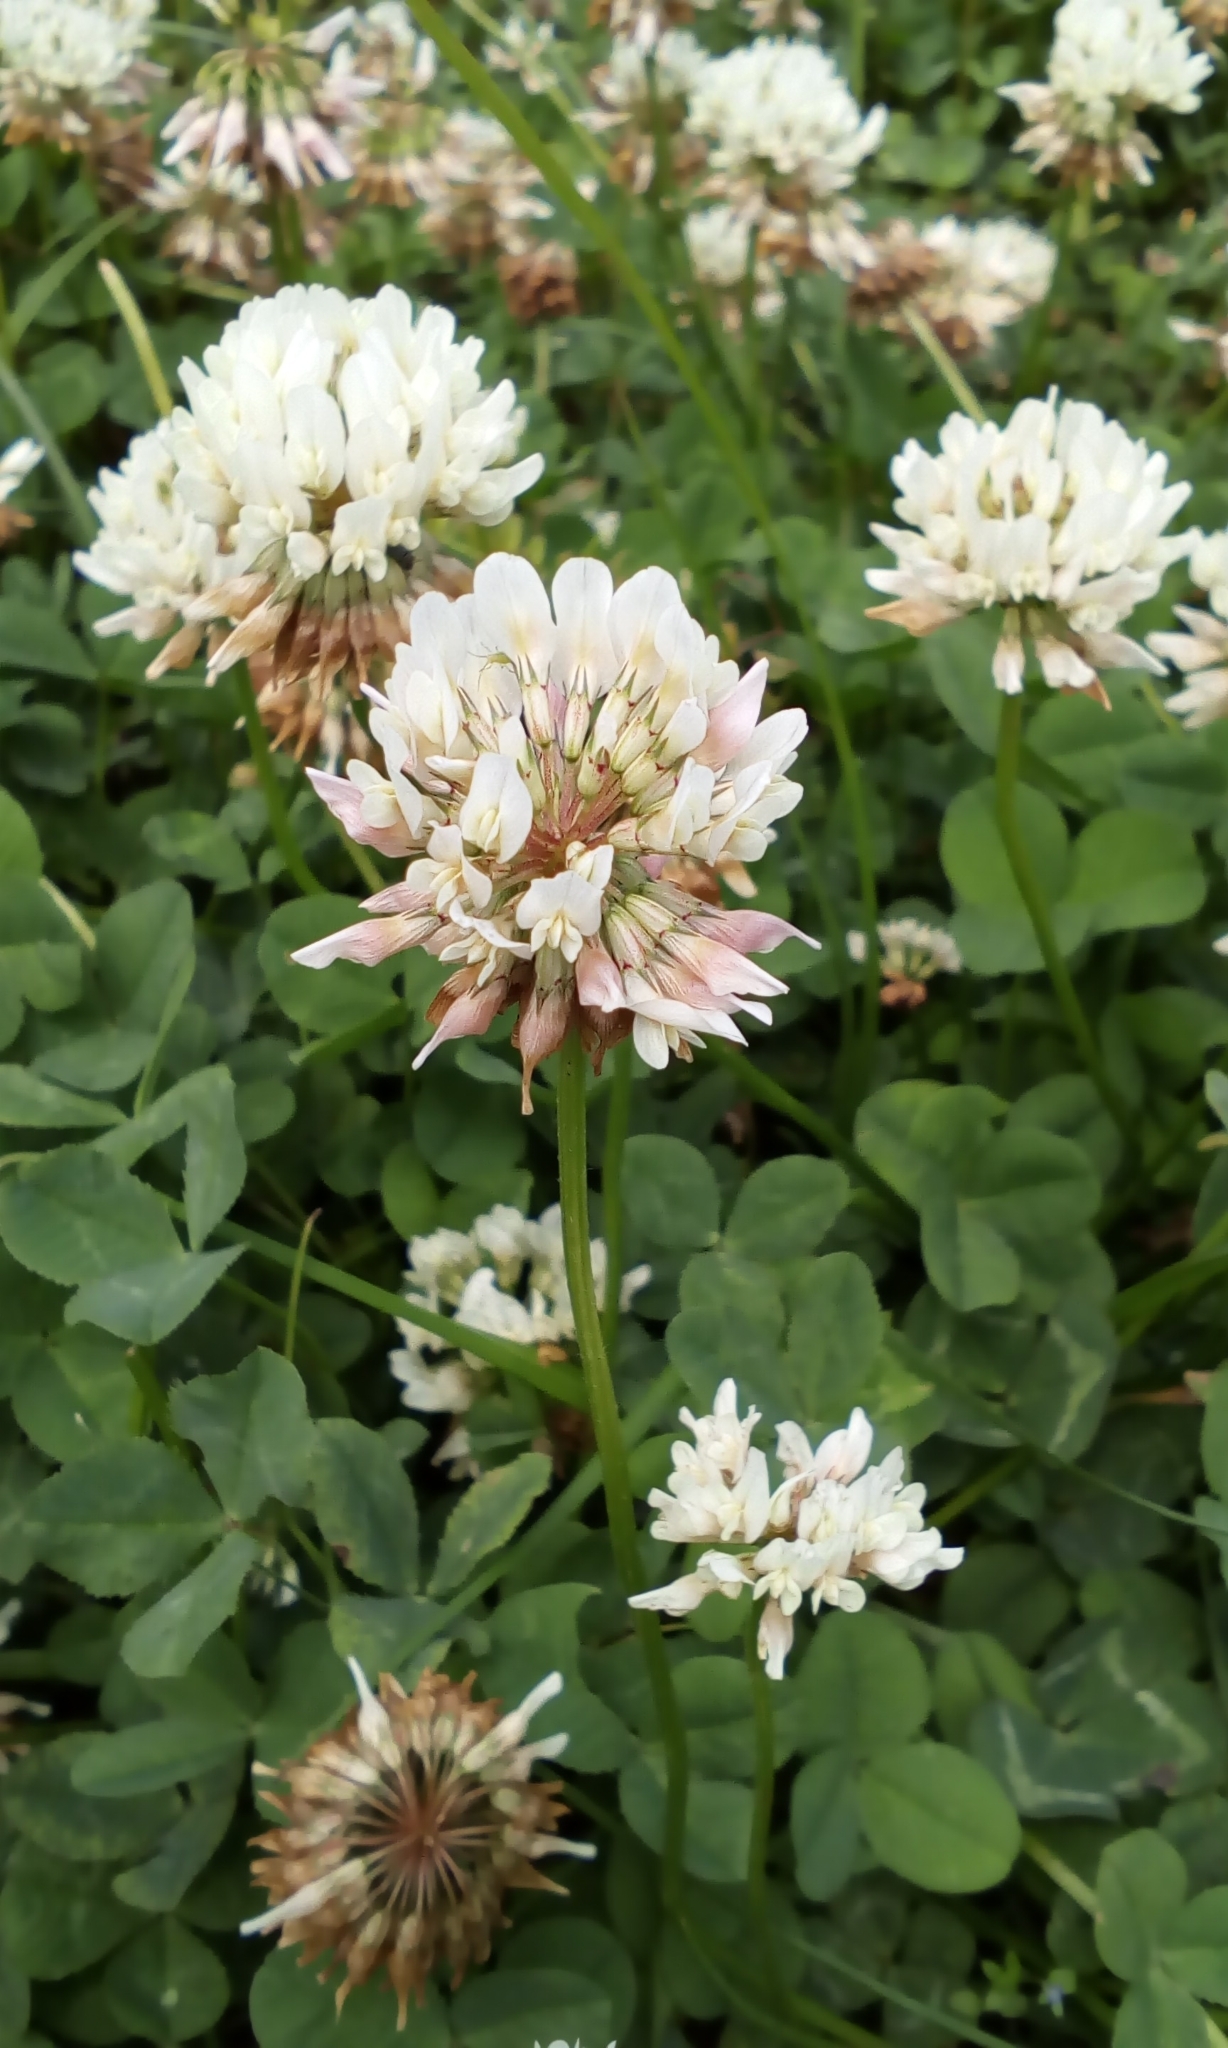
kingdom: Plantae
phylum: Tracheophyta
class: Magnoliopsida
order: Fabales
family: Fabaceae
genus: Trifolium
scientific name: Trifolium repens
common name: White clover
